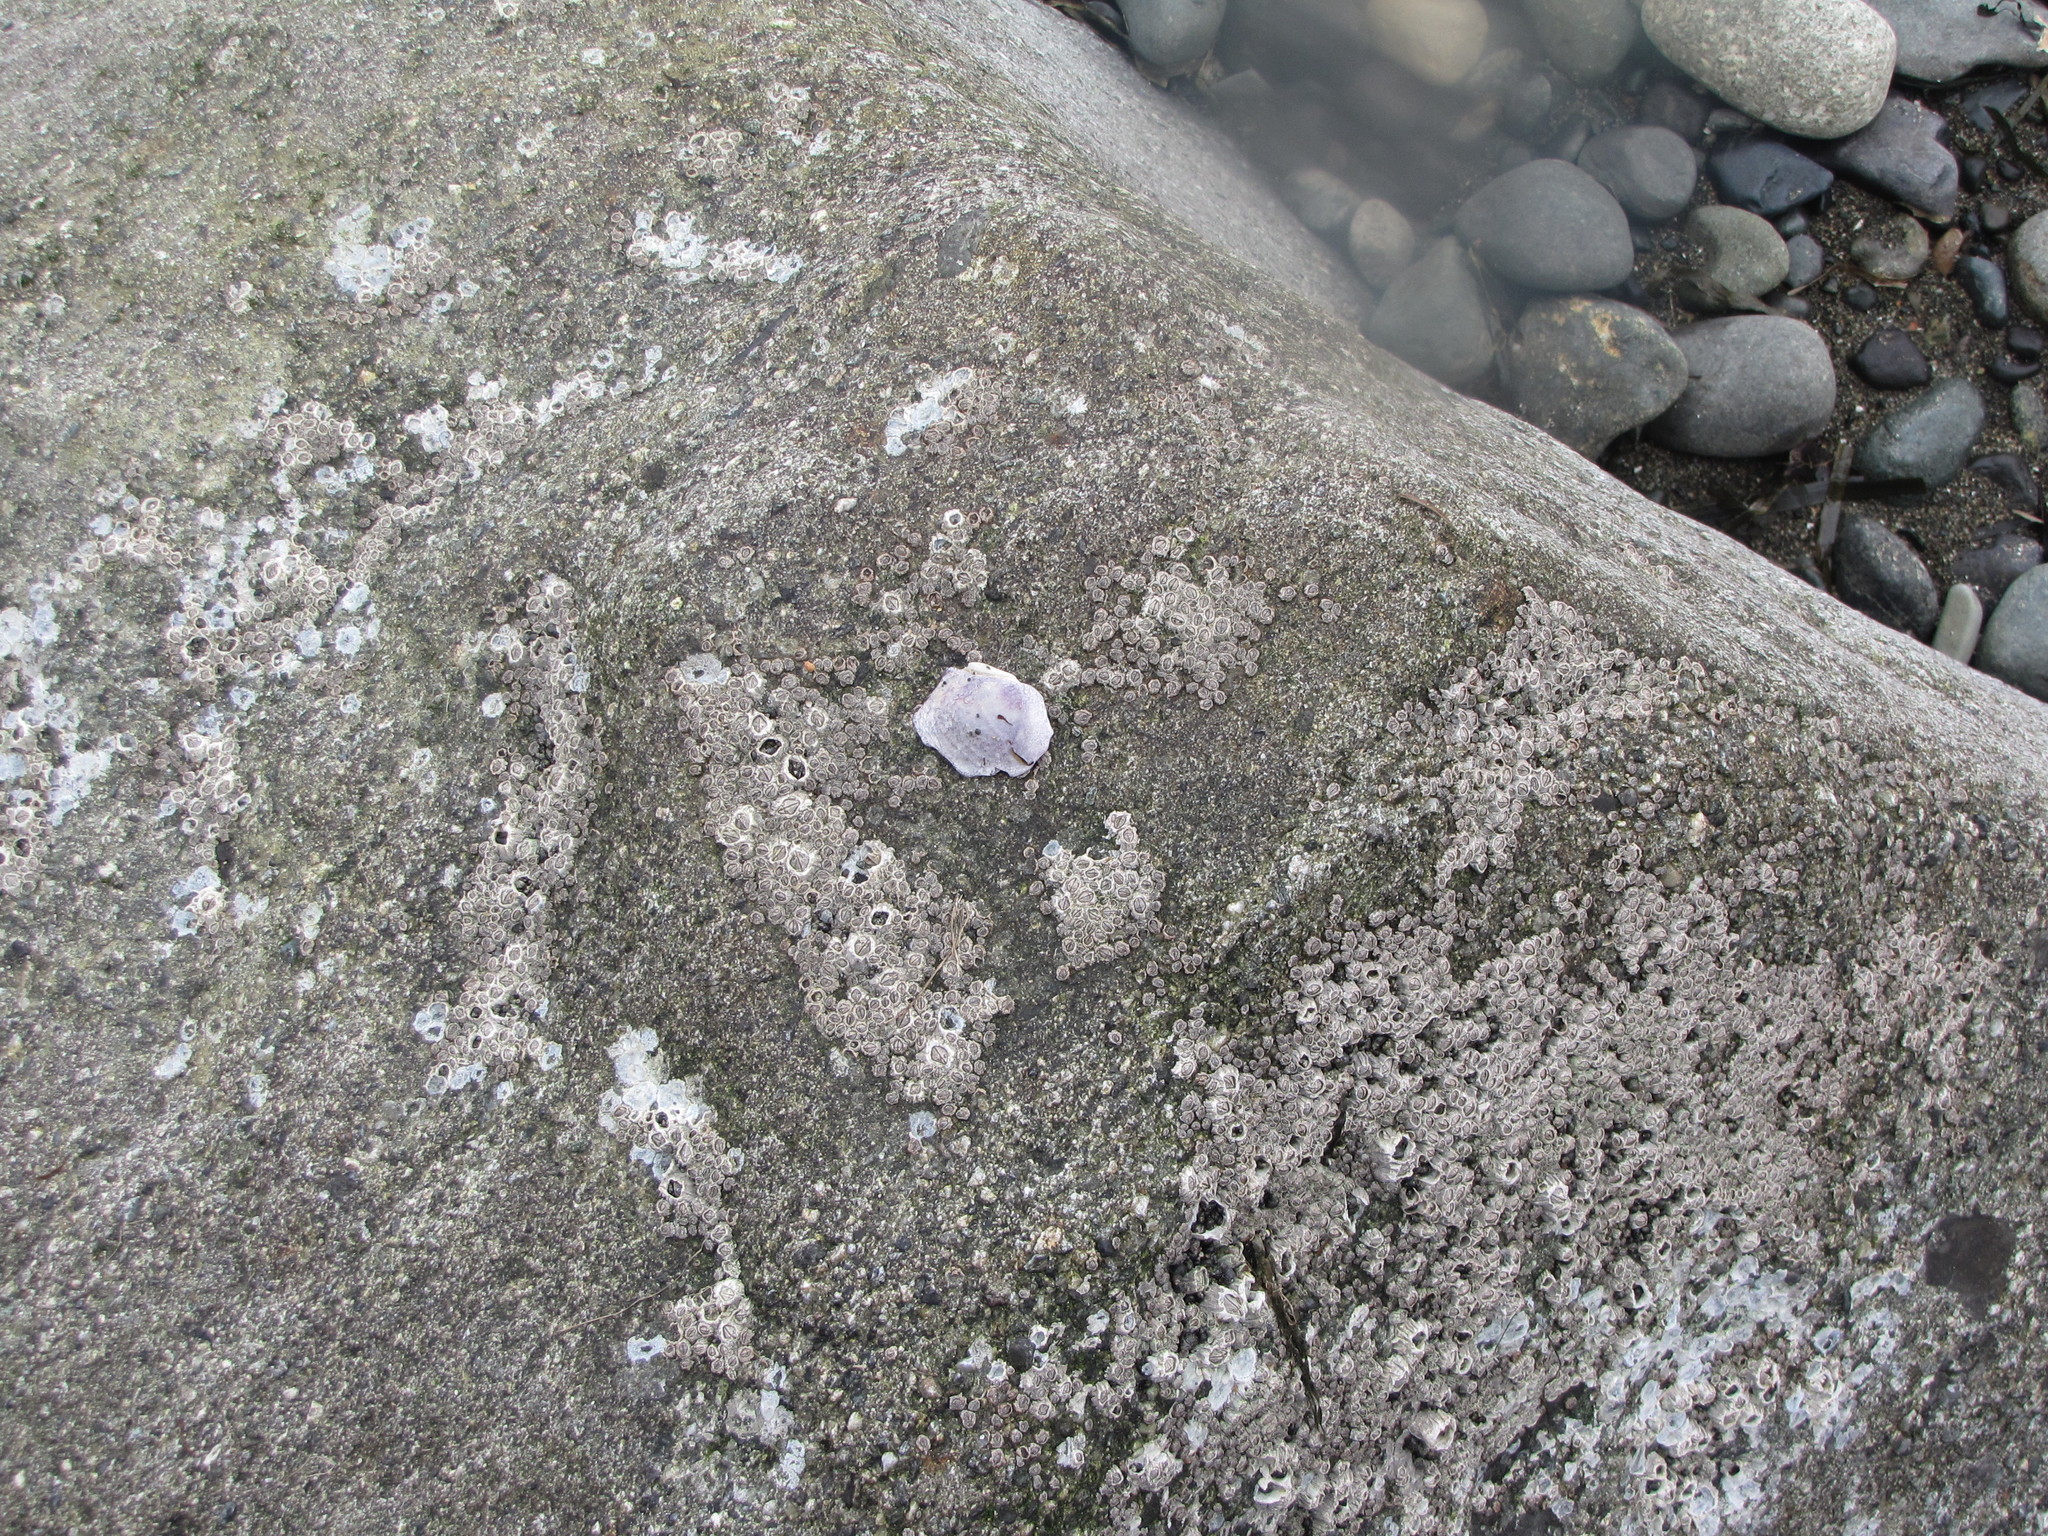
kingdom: Animalia
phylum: Mollusca
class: Bivalvia
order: Cardiida
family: Psammobiidae
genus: Nuttallia
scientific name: Nuttallia obscurata
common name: Purple mahogany-clam
